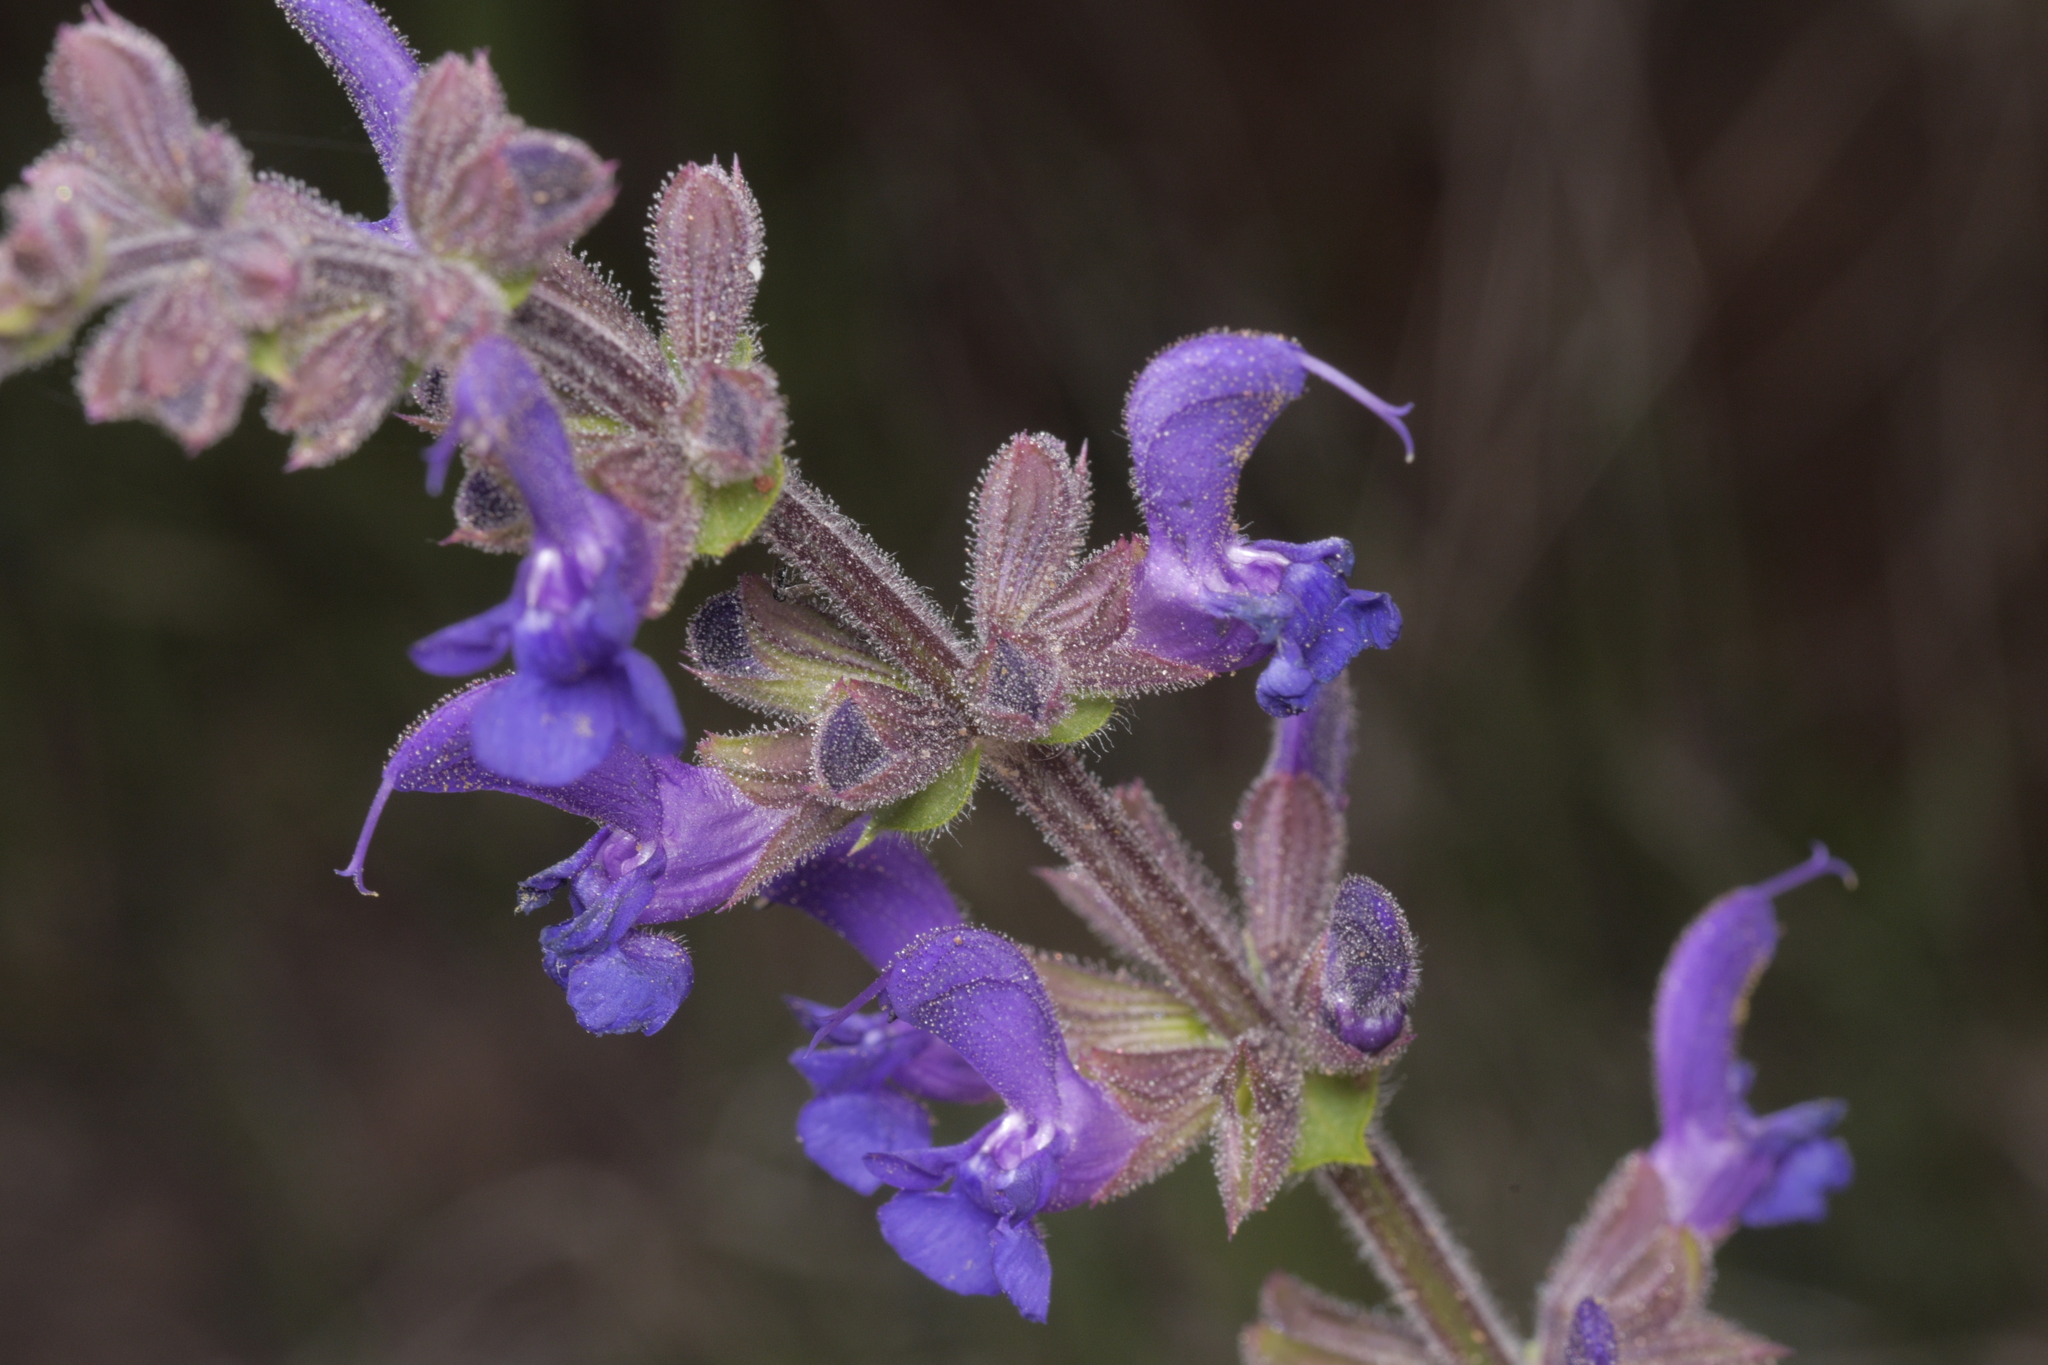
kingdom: Plantae
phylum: Tracheophyta
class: Magnoliopsida
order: Lamiales
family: Lamiaceae
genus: Salvia
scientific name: Salvia pratensis
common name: Meadow sage
